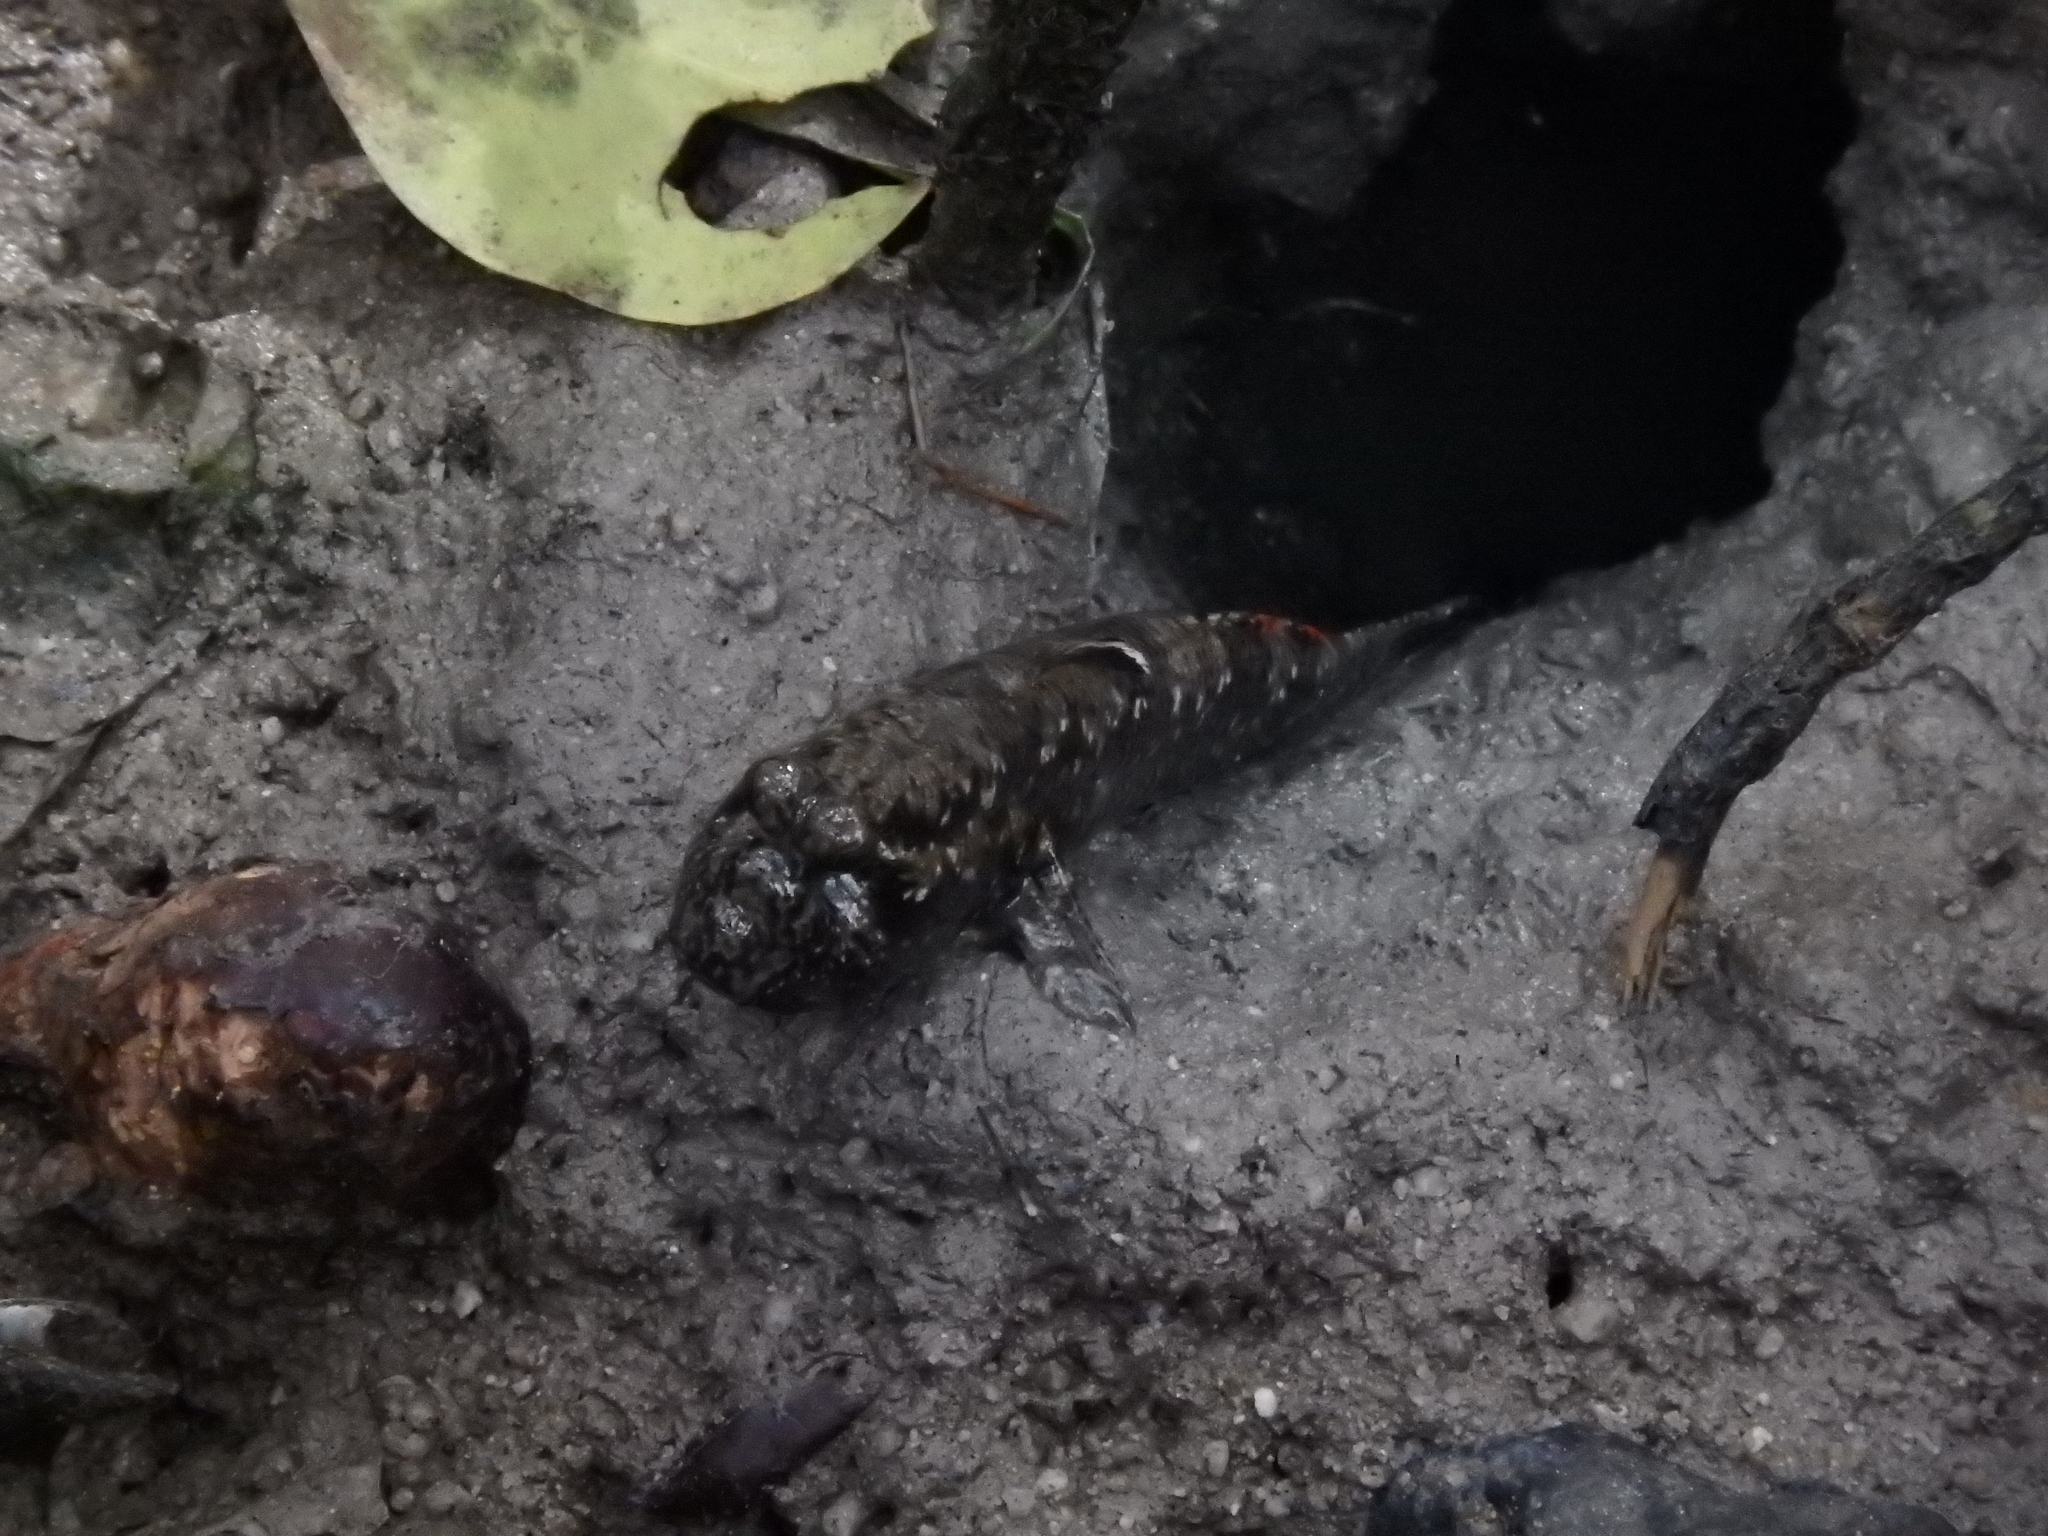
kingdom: Animalia
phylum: Chordata
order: Perciformes
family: Gobiidae
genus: Periophthalmus
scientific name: Periophthalmus walailakae
